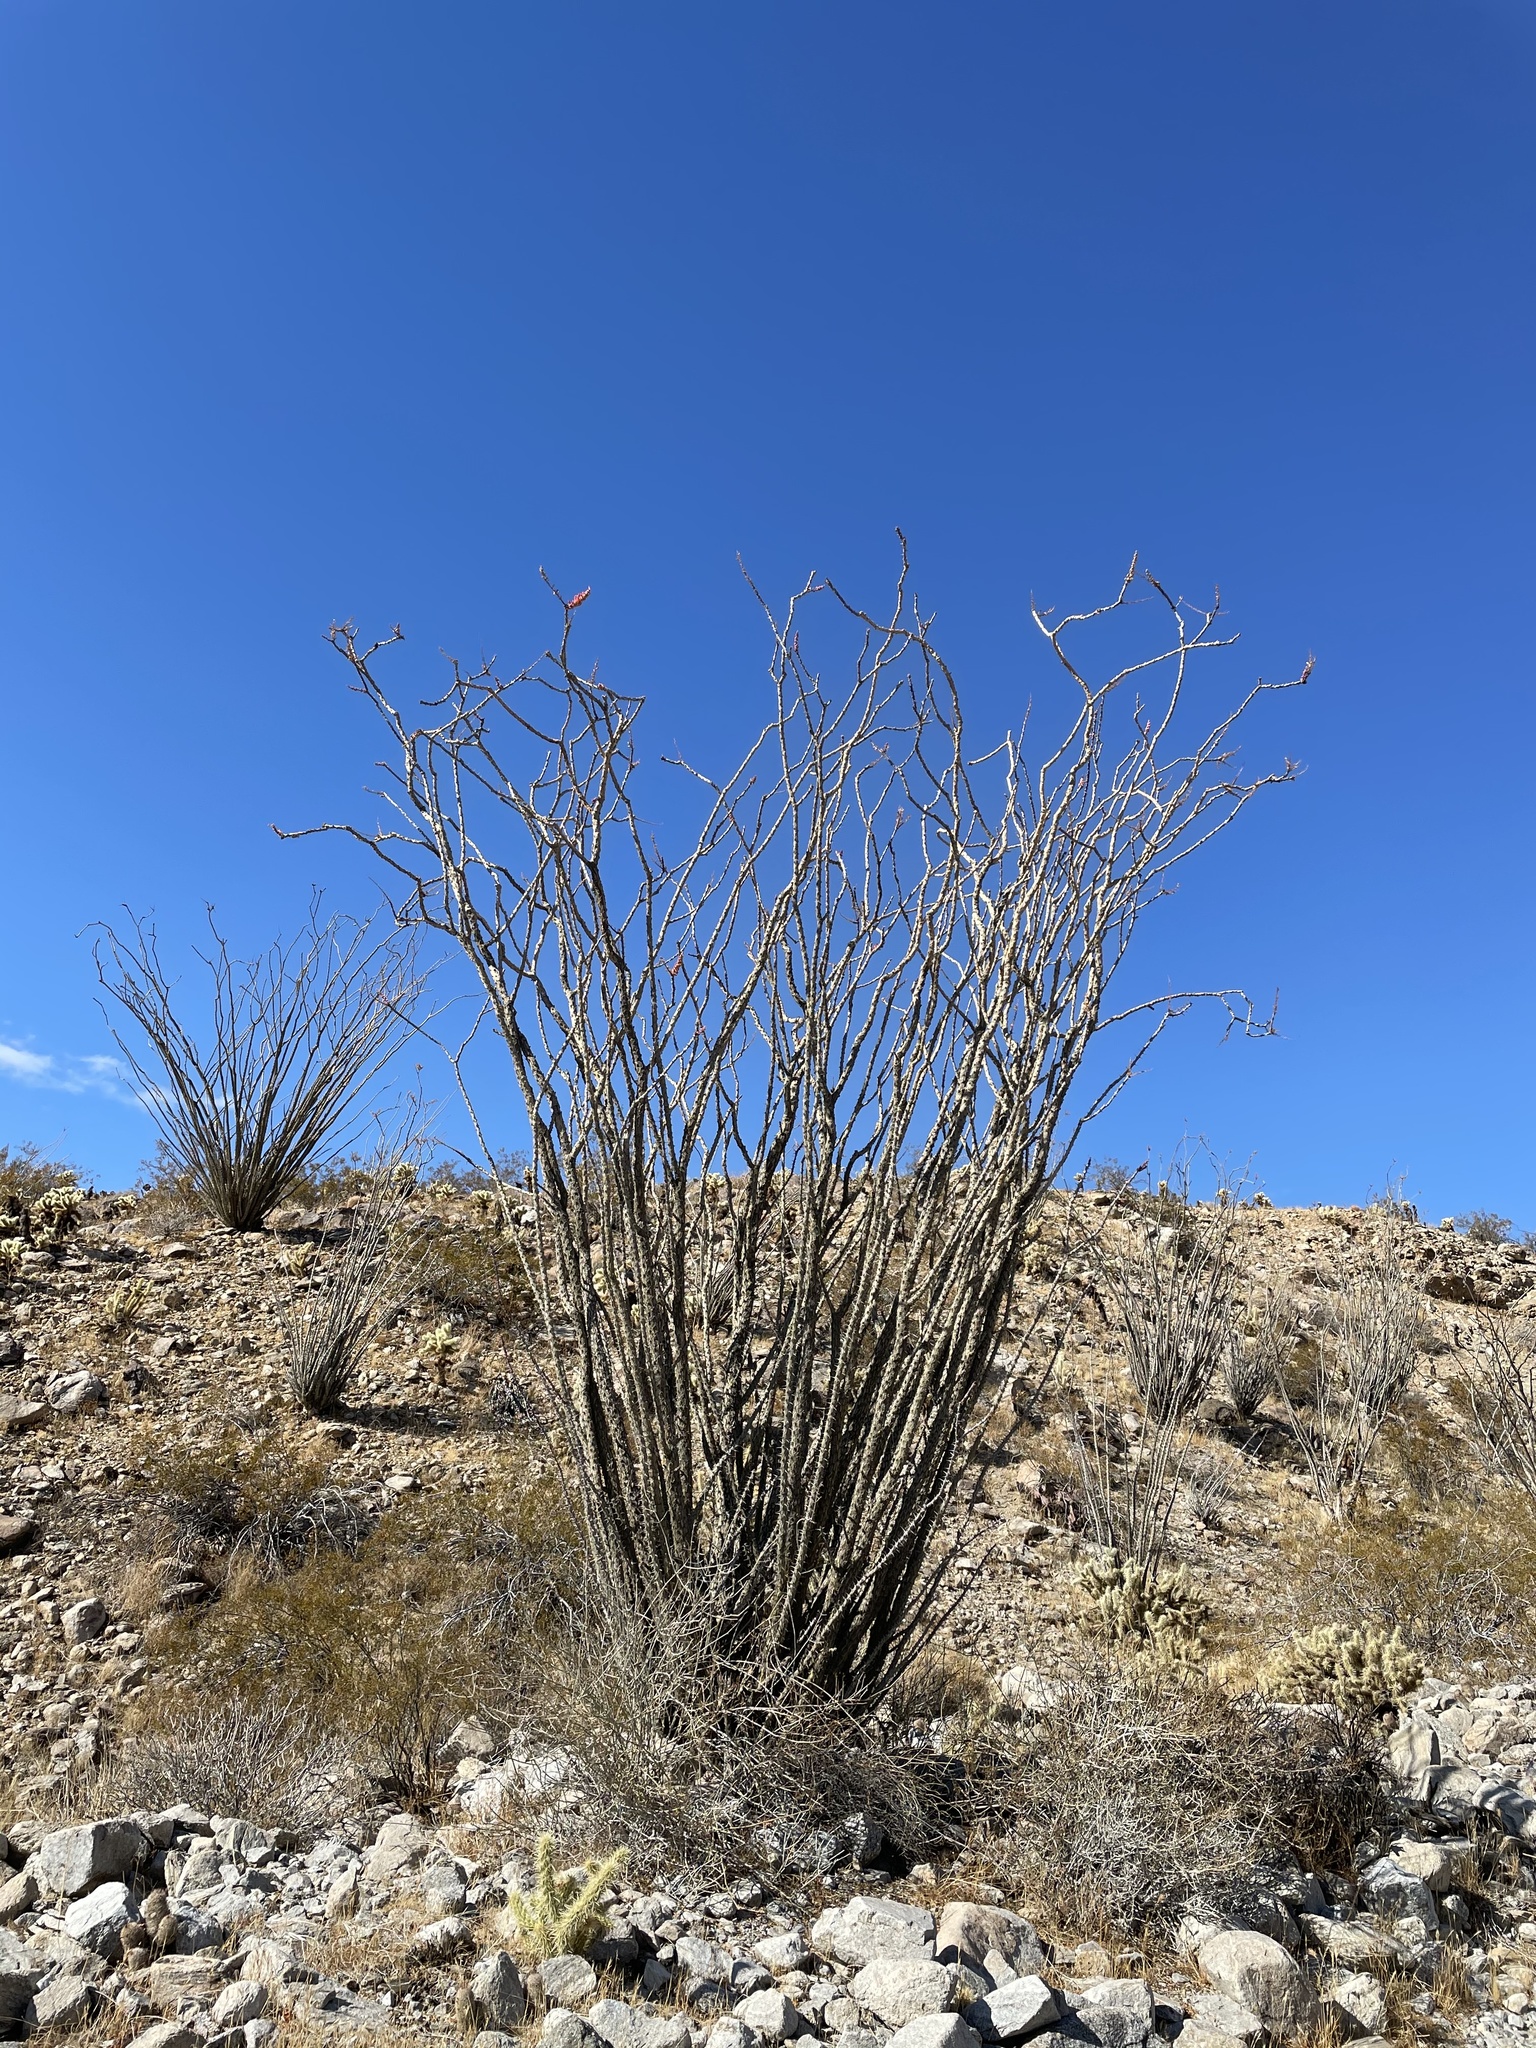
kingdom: Plantae
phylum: Tracheophyta
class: Magnoliopsida
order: Ericales
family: Fouquieriaceae
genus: Fouquieria
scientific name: Fouquieria splendens
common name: Vine-cactus
